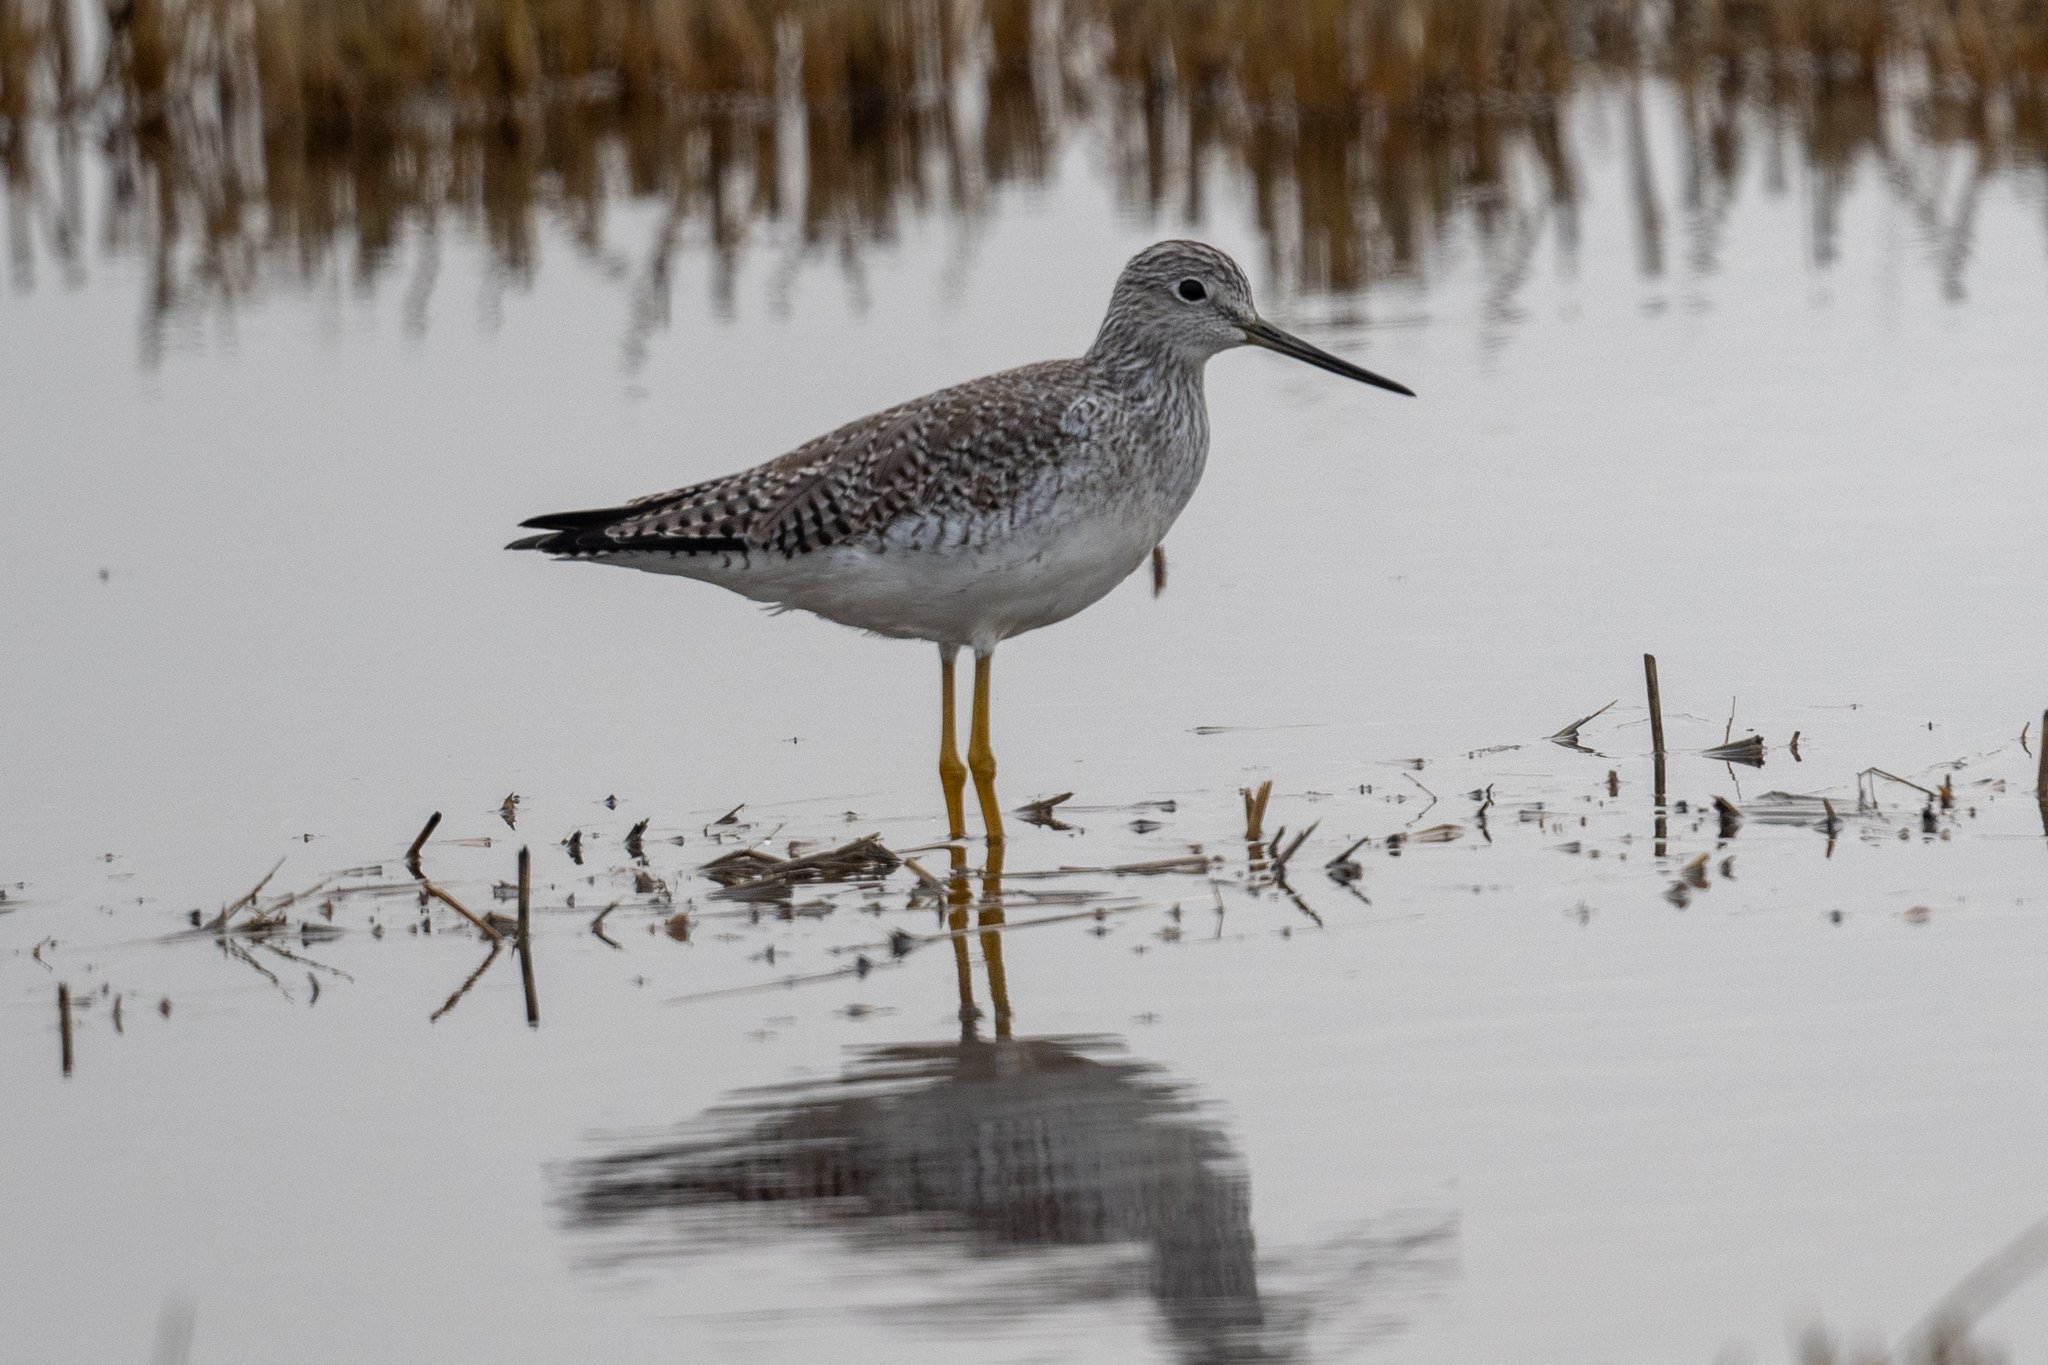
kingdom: Animalia
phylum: Chordata
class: Aves
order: Charadriiformes
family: Scolopacidae
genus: Tringa
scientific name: Tringa melanoleuca
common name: Greater yellowlegs
